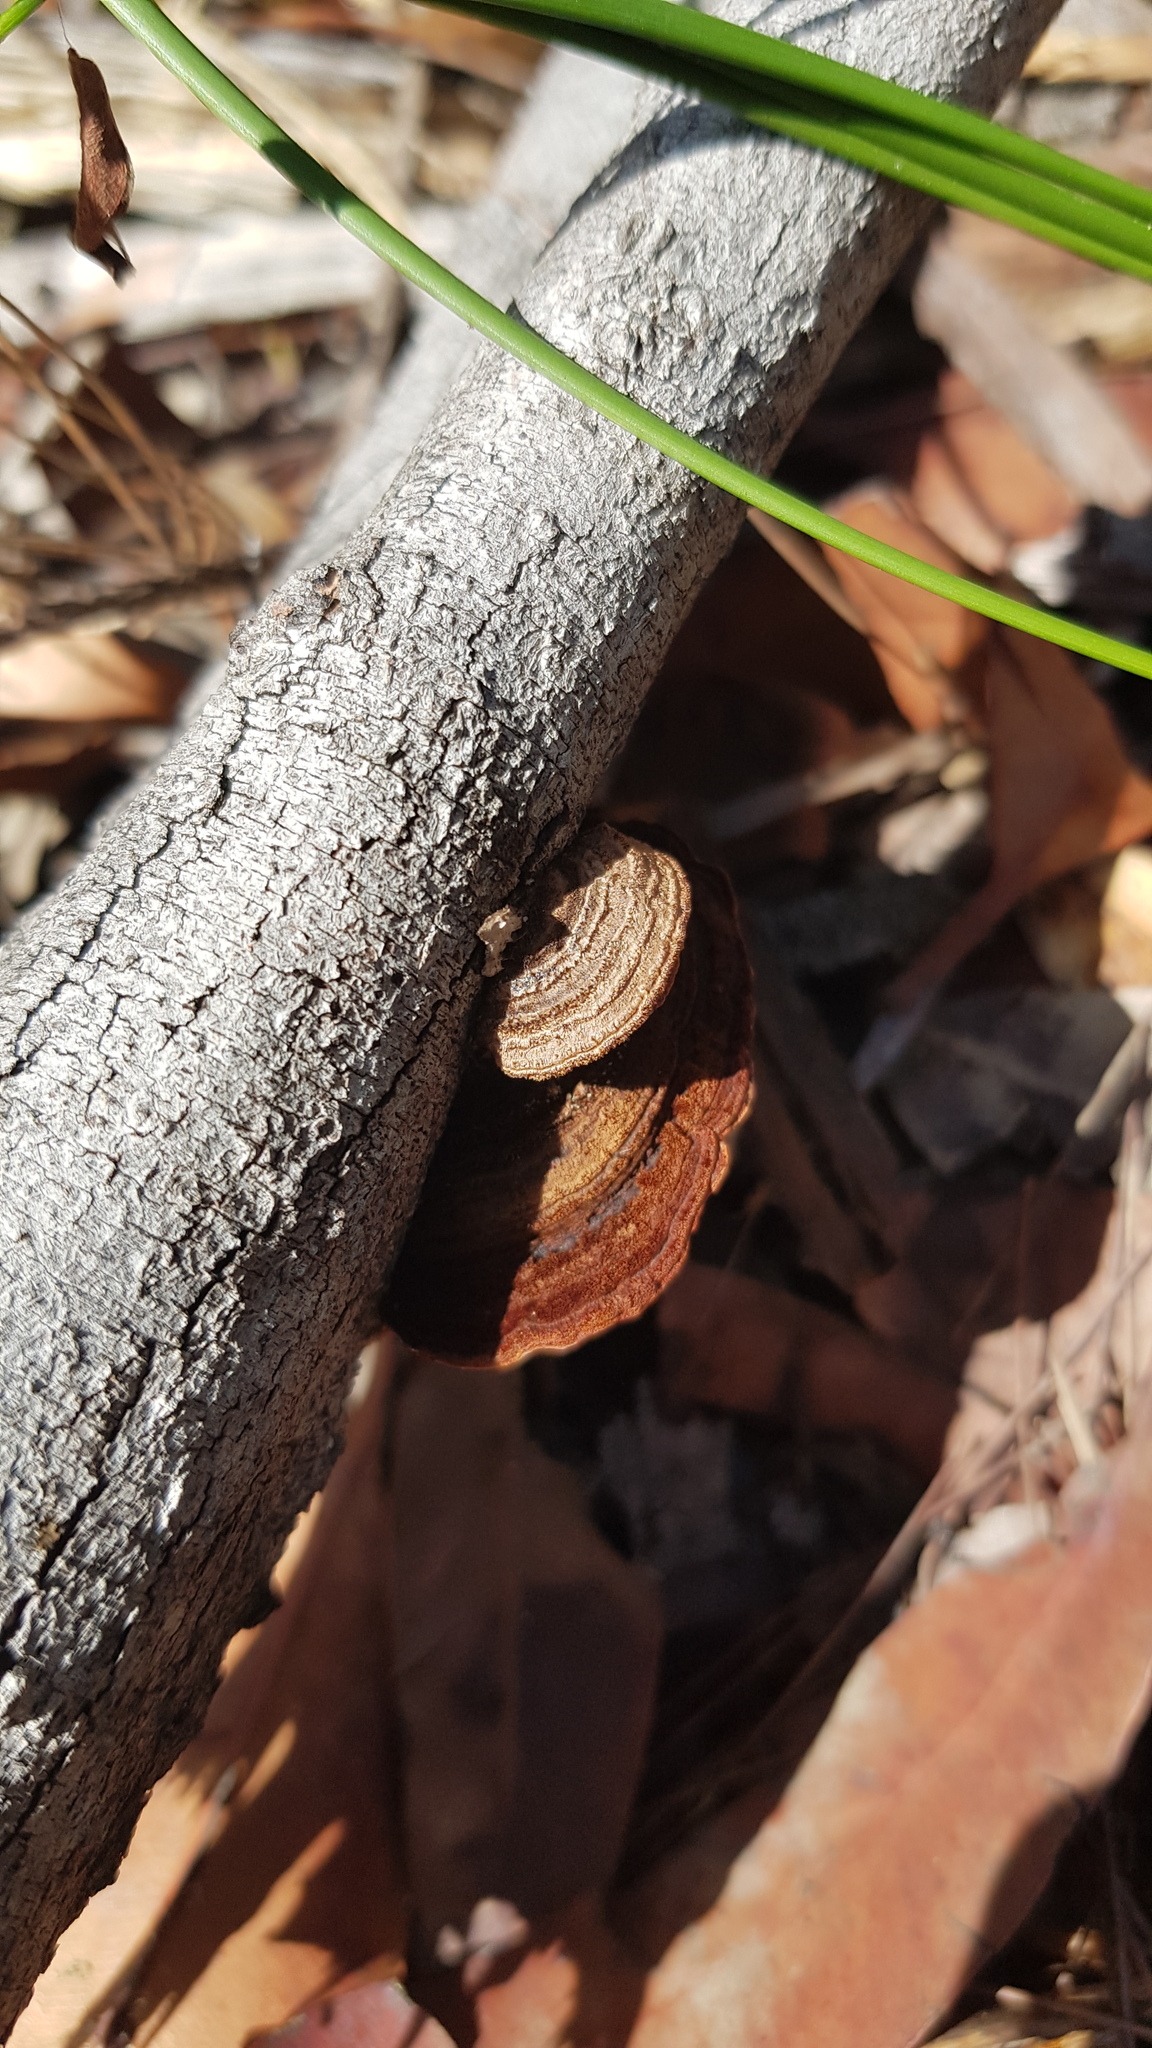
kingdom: Fungi
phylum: Basidiomycota
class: Agaricomycetes
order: Polyporales
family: Polyporaceae
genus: Phaeotrametes
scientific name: Phaeotrametes decipiens
